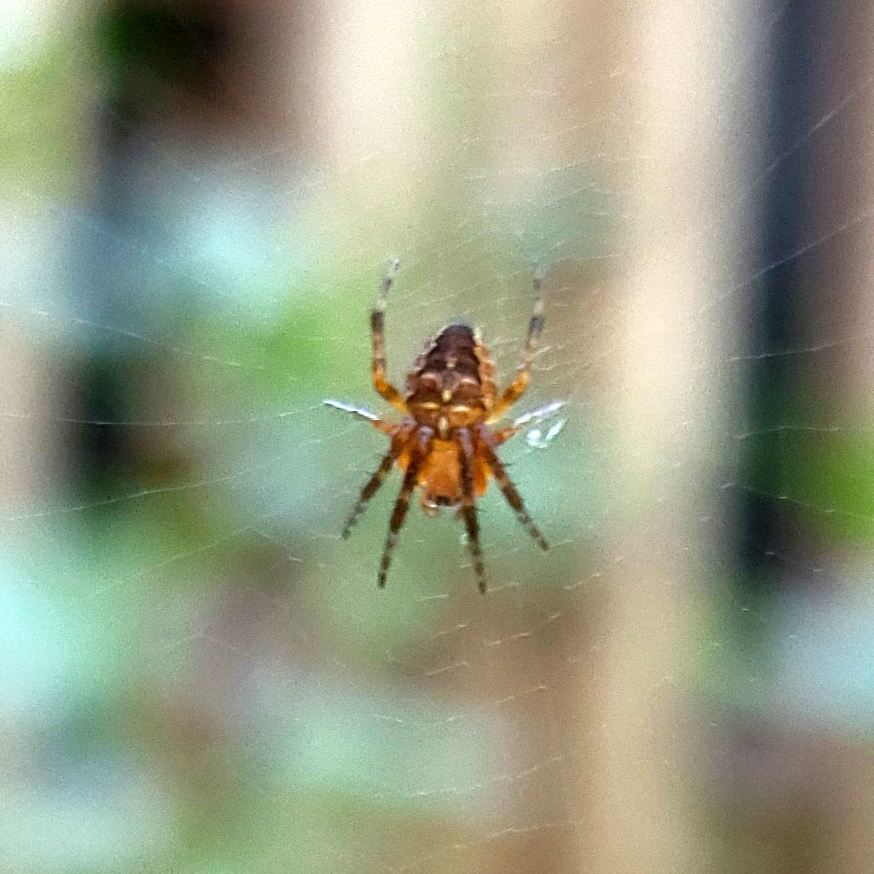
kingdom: Animalia
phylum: Arthropoda
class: Arachnida
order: Araneae
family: Araneidae
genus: Araneus
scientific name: Araneus diadematus
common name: Cross orbweaver
